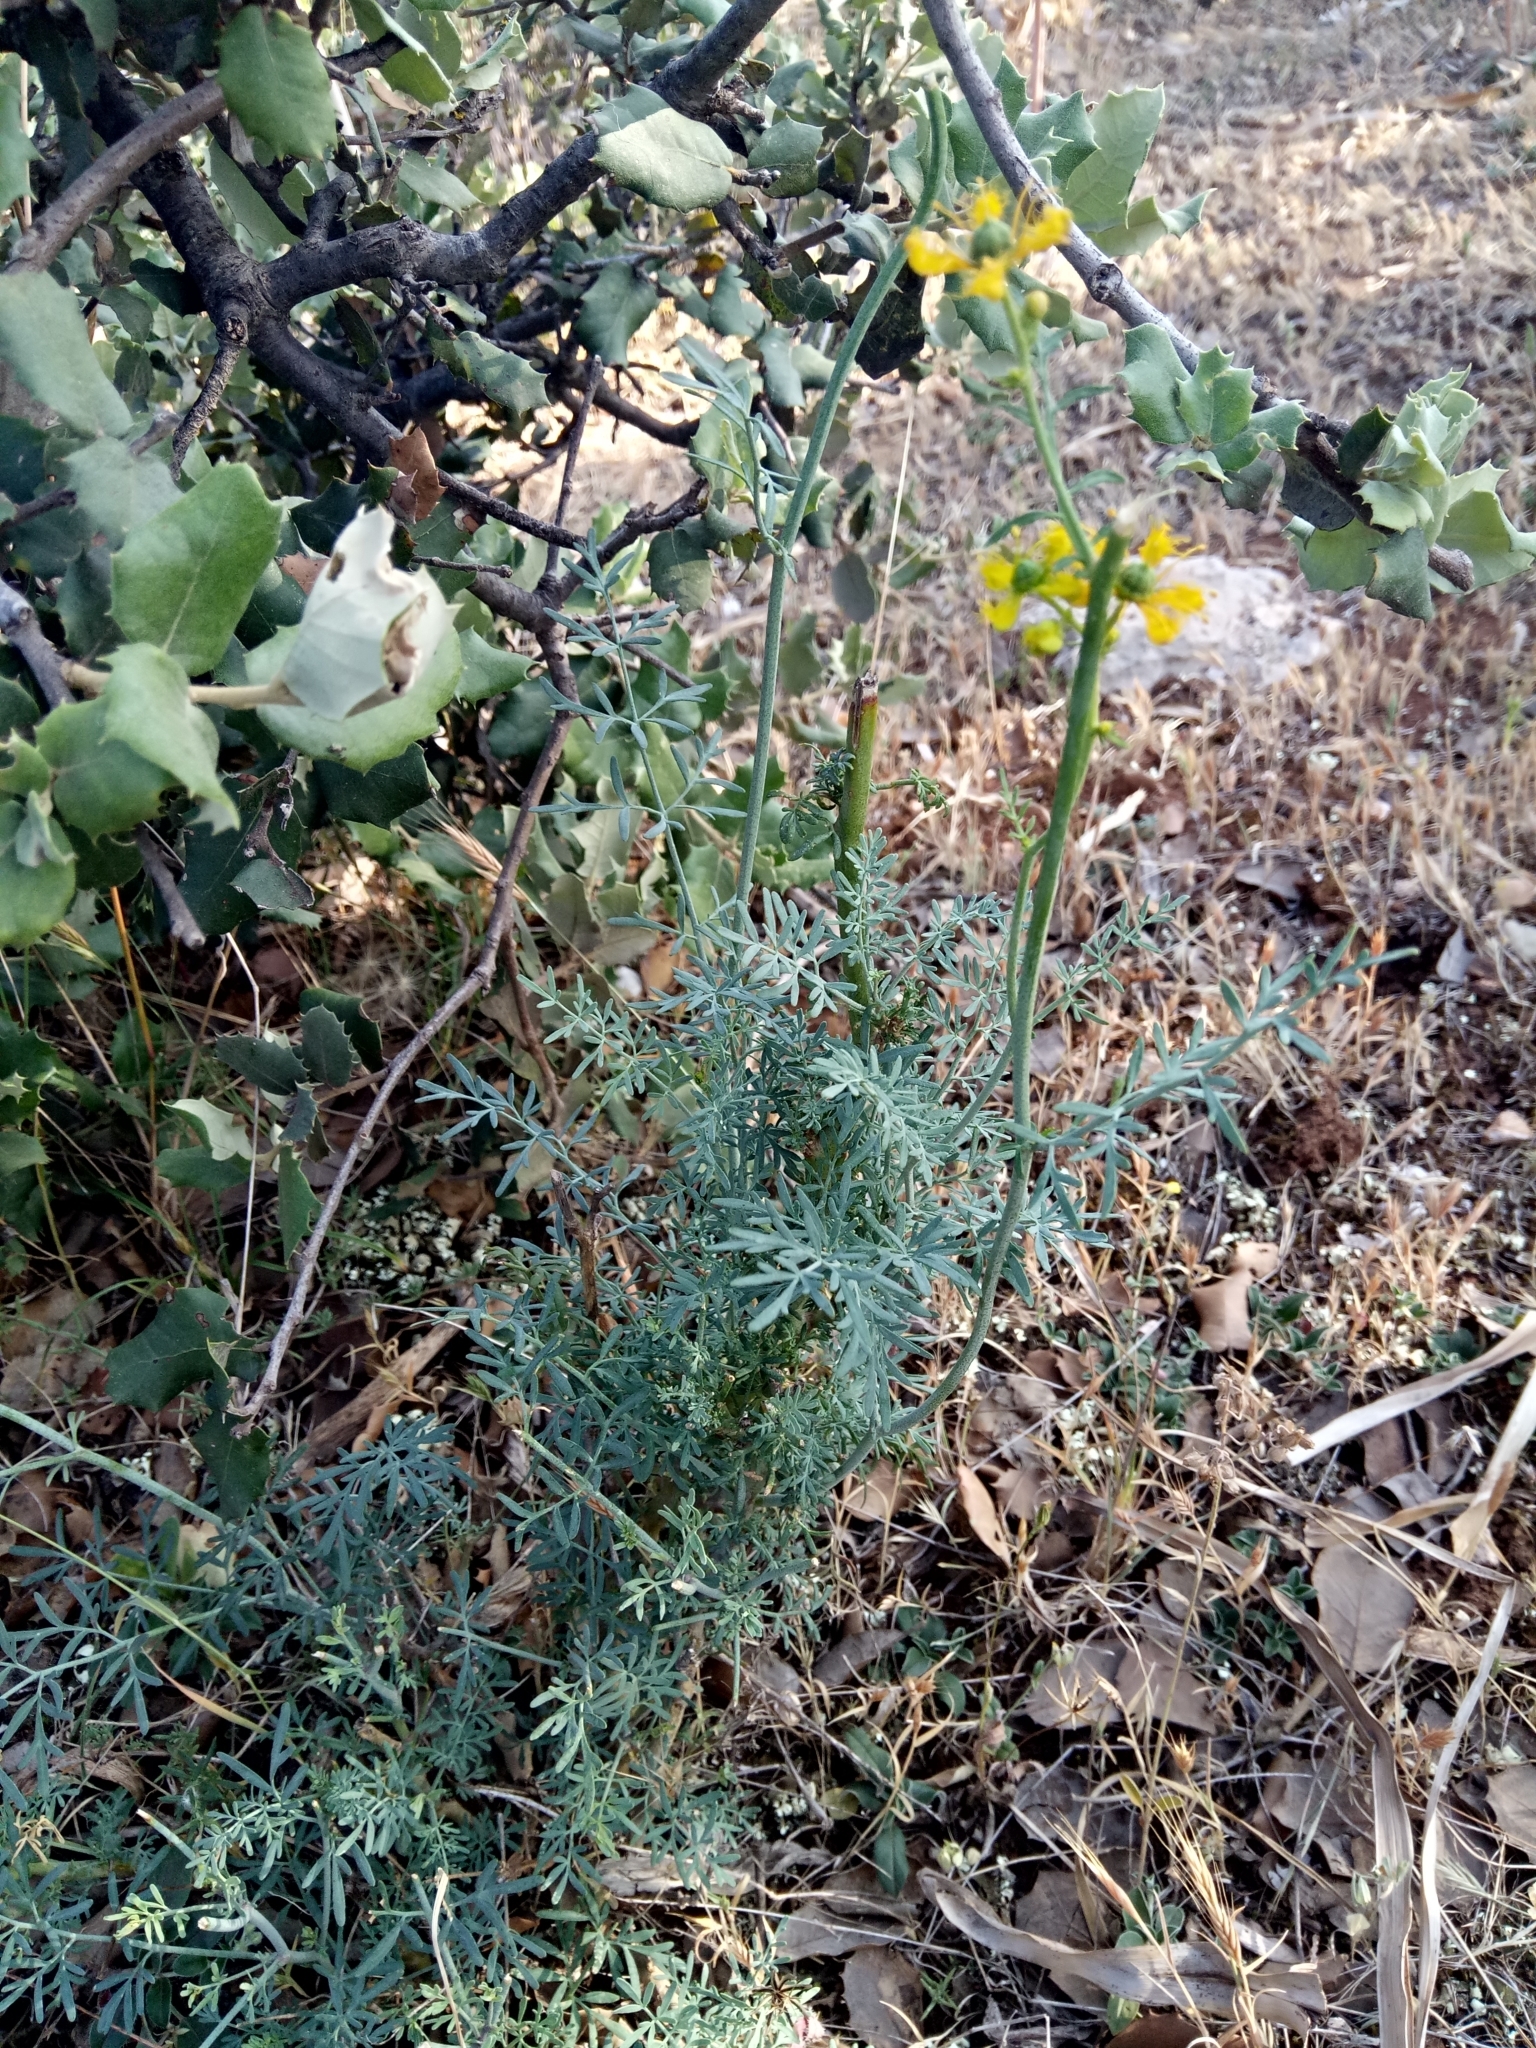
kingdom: Plantae
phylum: Tracheophyta
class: Magnoliopsida
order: Sapindales
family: Rutaceae
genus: Ruta
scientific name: Ruta angustifolia
